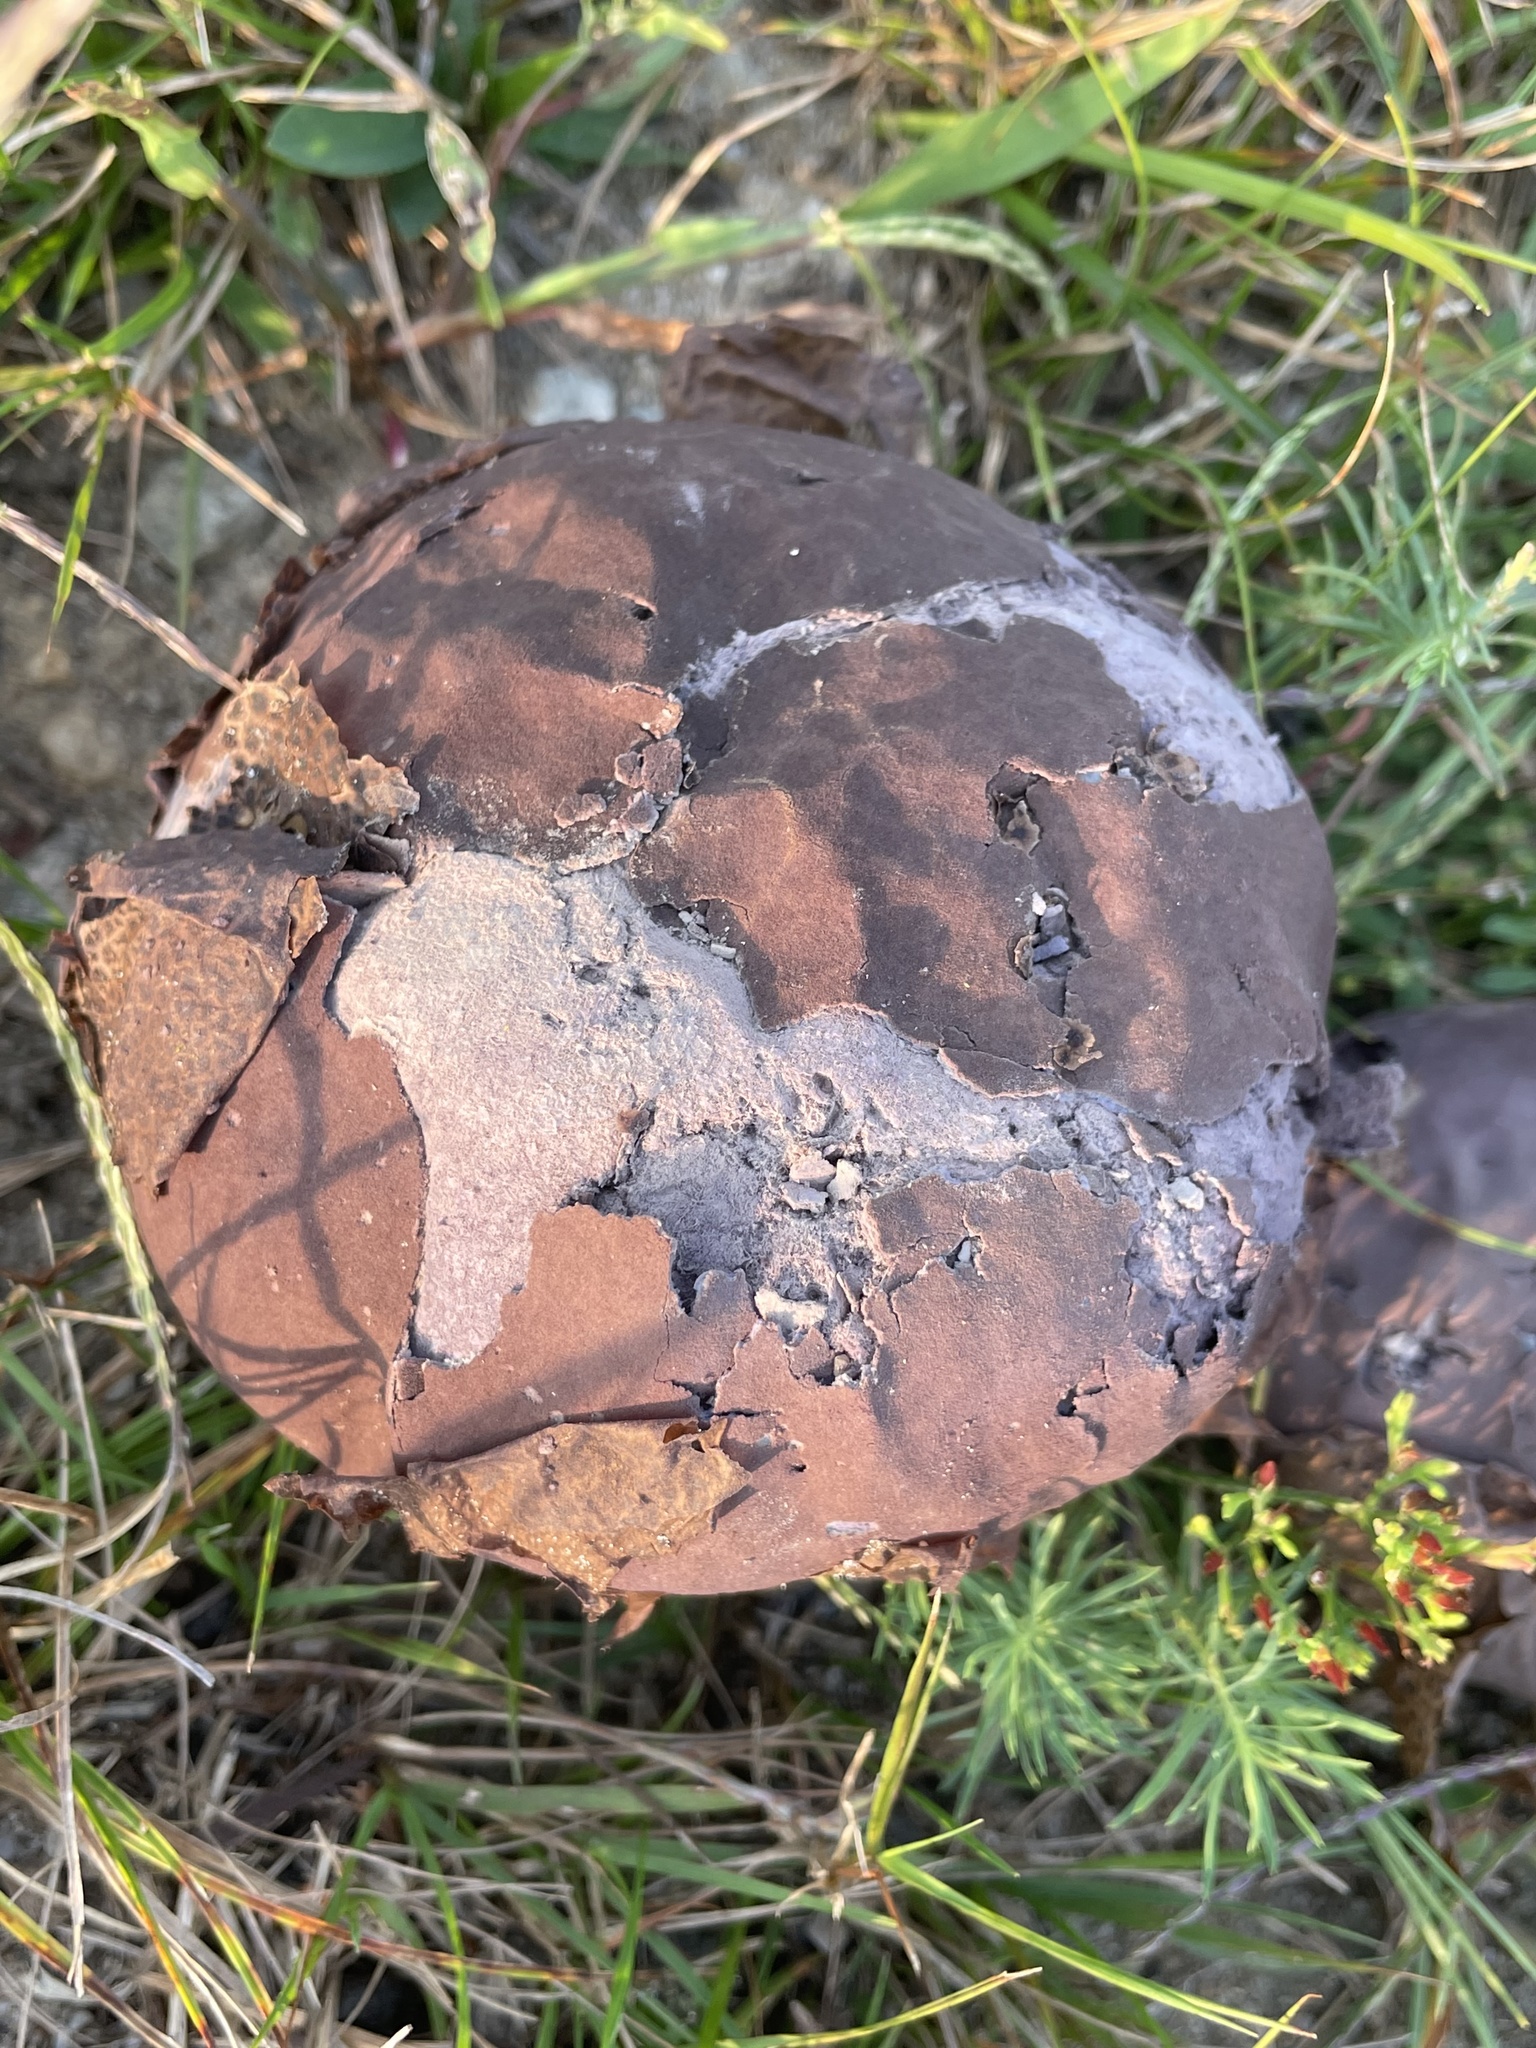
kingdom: Fungi
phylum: Basidiomycota
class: Agaricomycetes
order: Agaricales
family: Lycoperdaceae
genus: Calvatia
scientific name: Calvatia cyathiformis
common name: Purple-spored puffball
